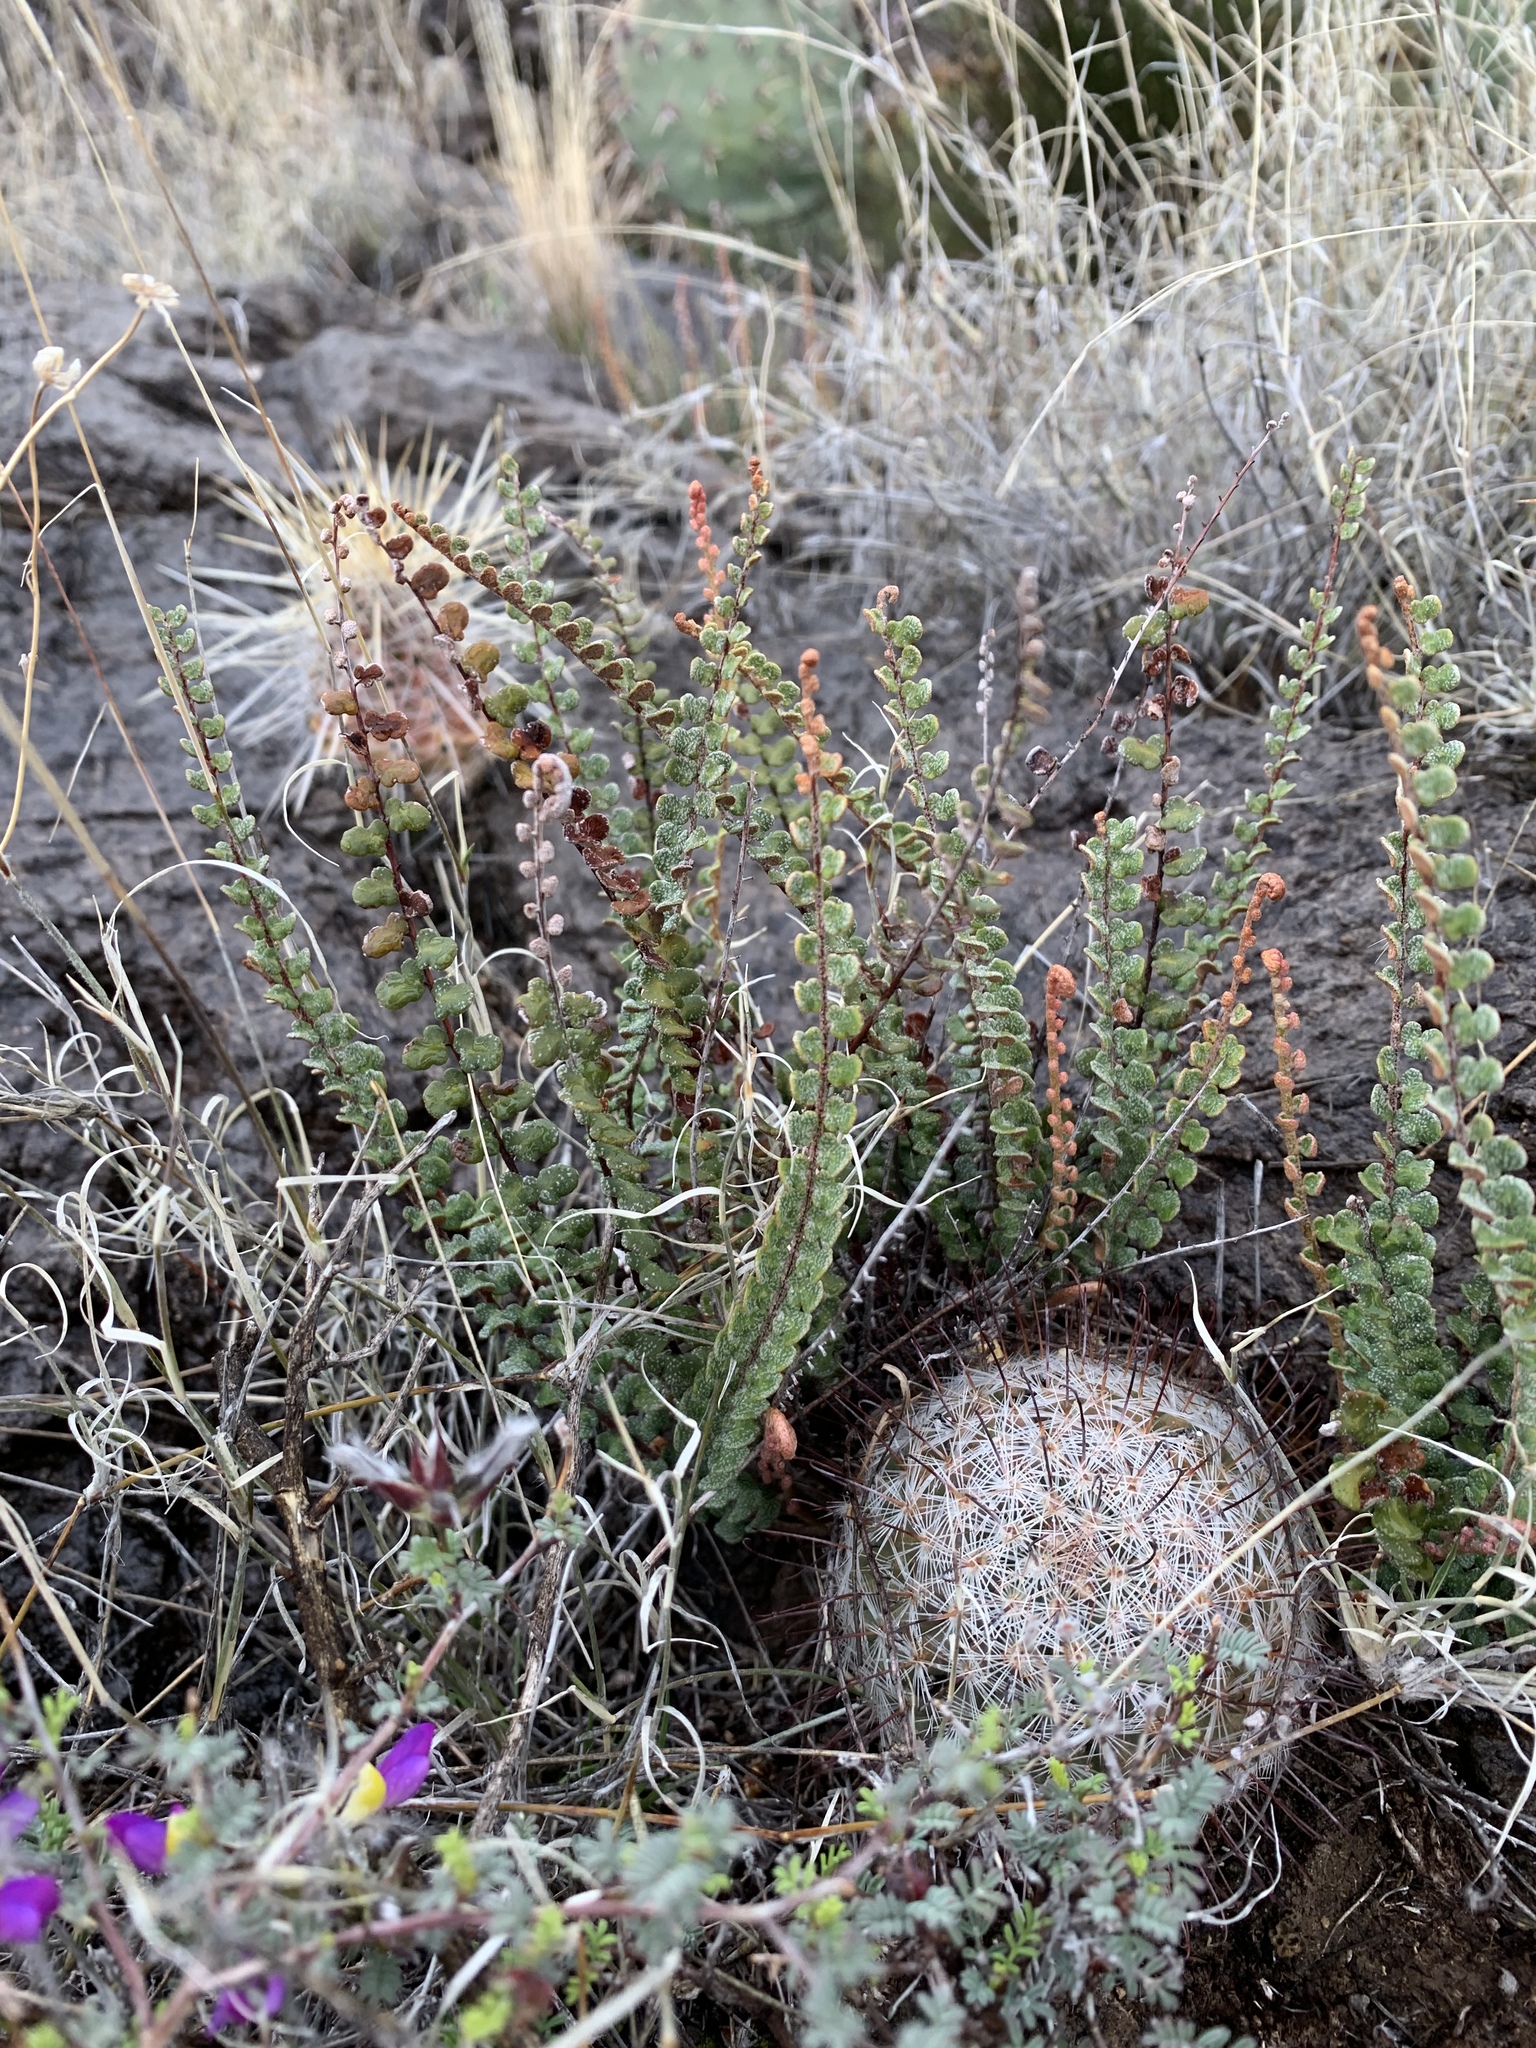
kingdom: Plantae
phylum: Tracheophyta
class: Polypodiopsida
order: Polypodiales
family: Pteridaceae
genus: Astrolepis
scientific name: Astrolepis cochisensis
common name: Scaly cloak fern
